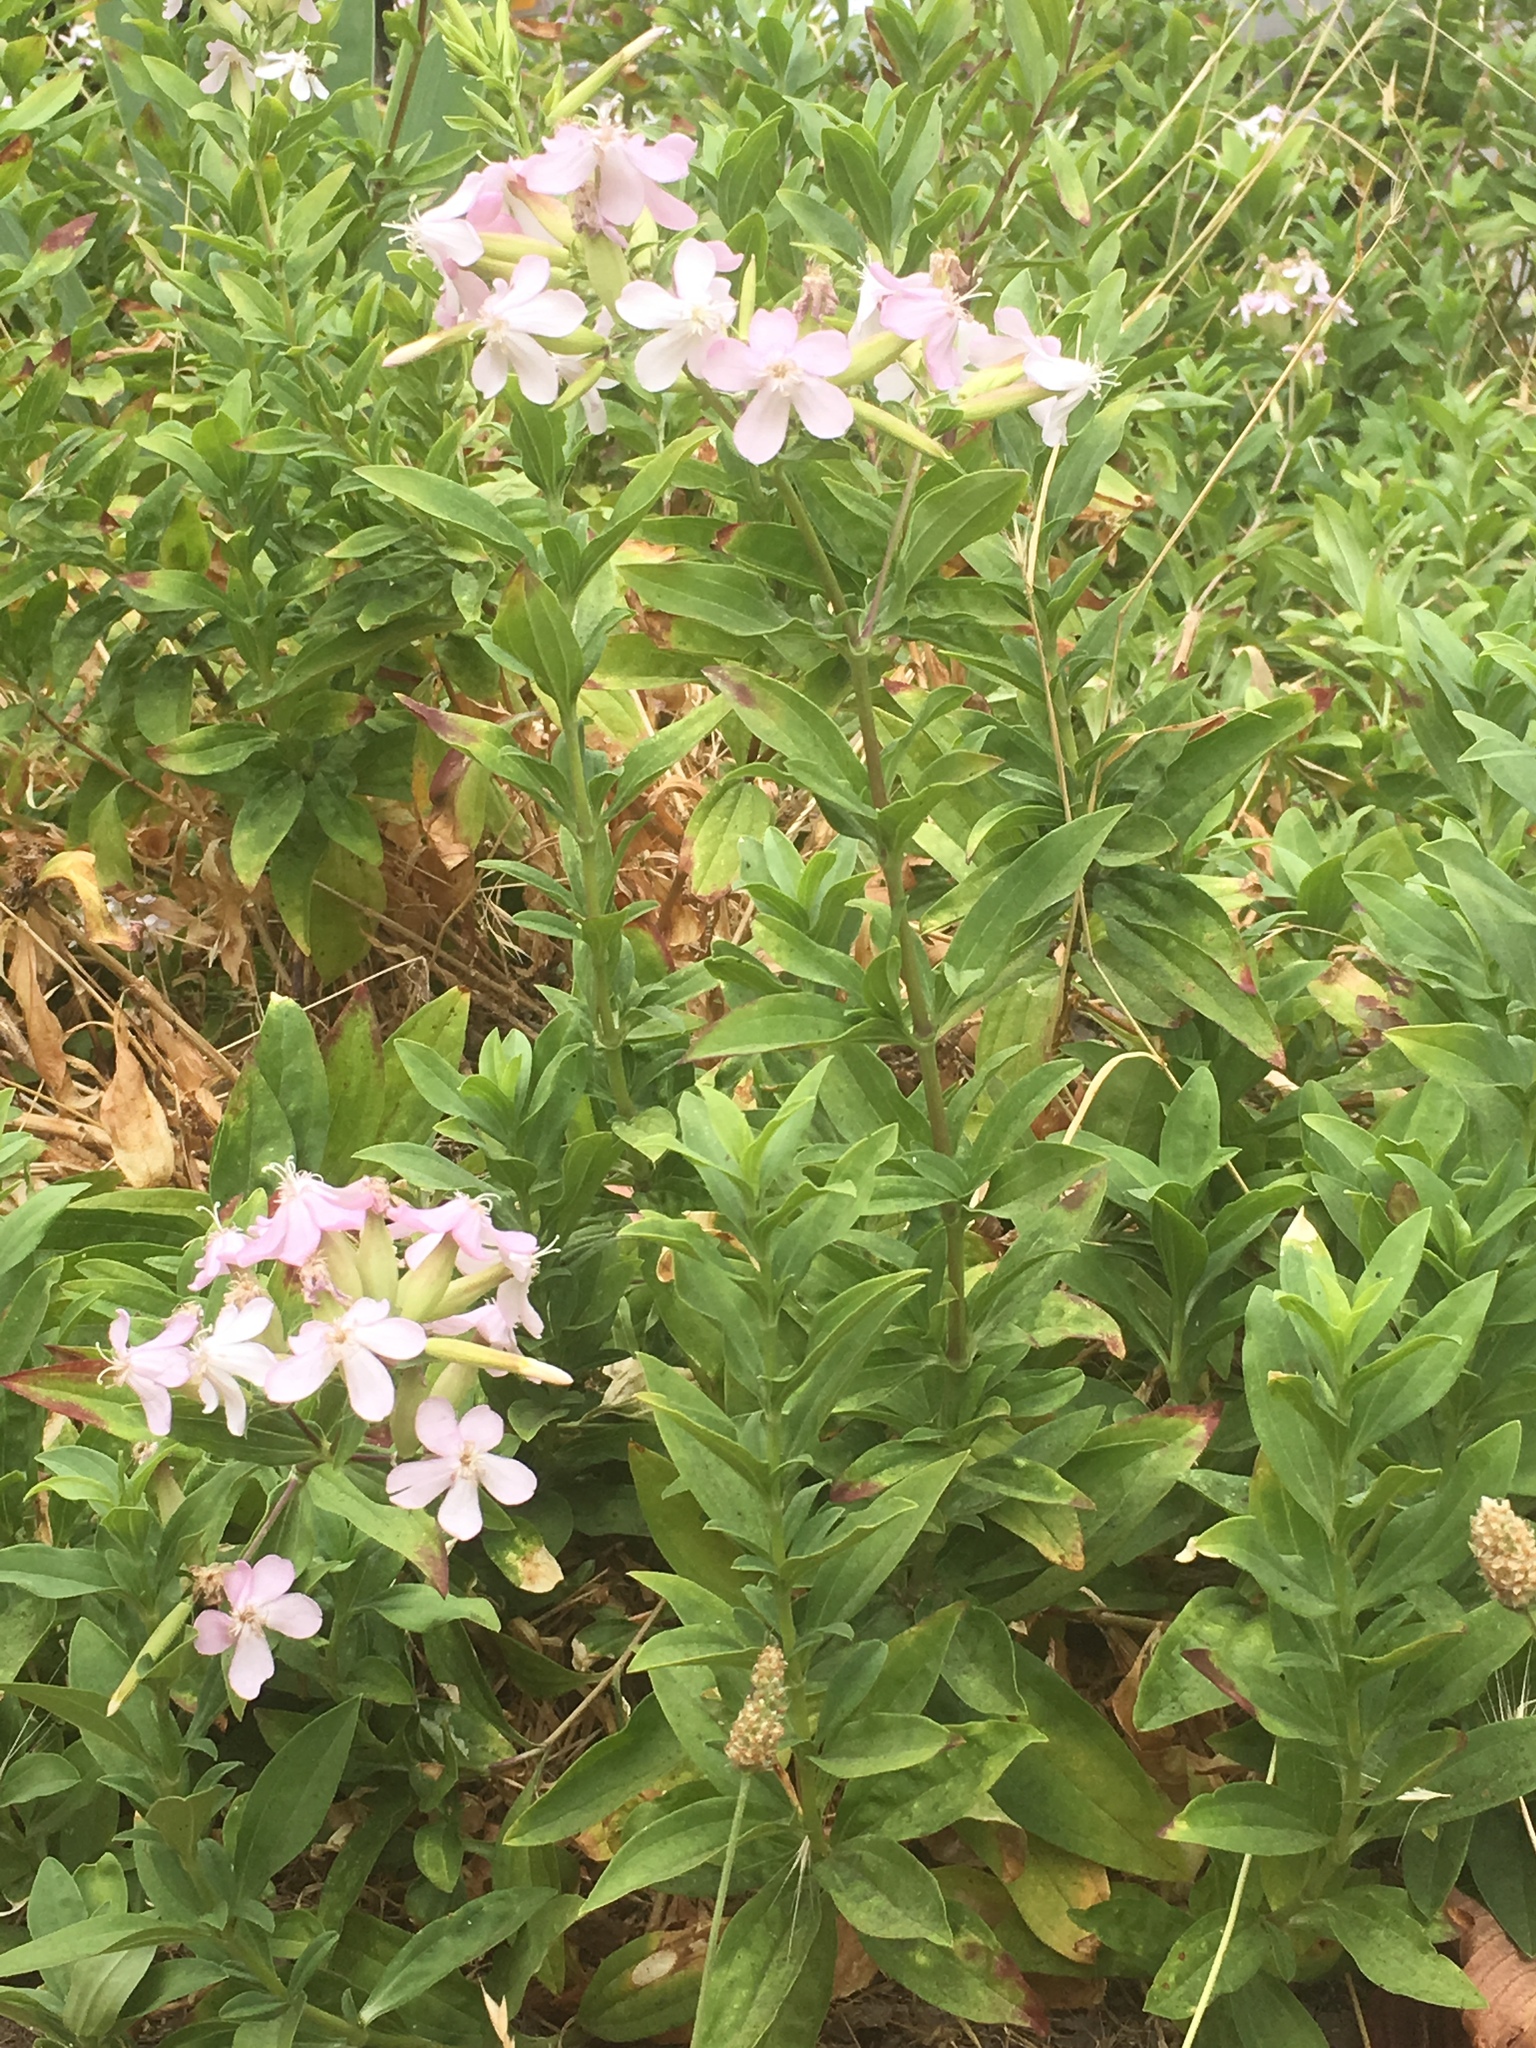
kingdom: Plantae
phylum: Tracheophyta
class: Magnoliopsida
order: Caryophyllales
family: Caryophyllaceae
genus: Saponaria
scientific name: Saponaria officinalis
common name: Soapwort
